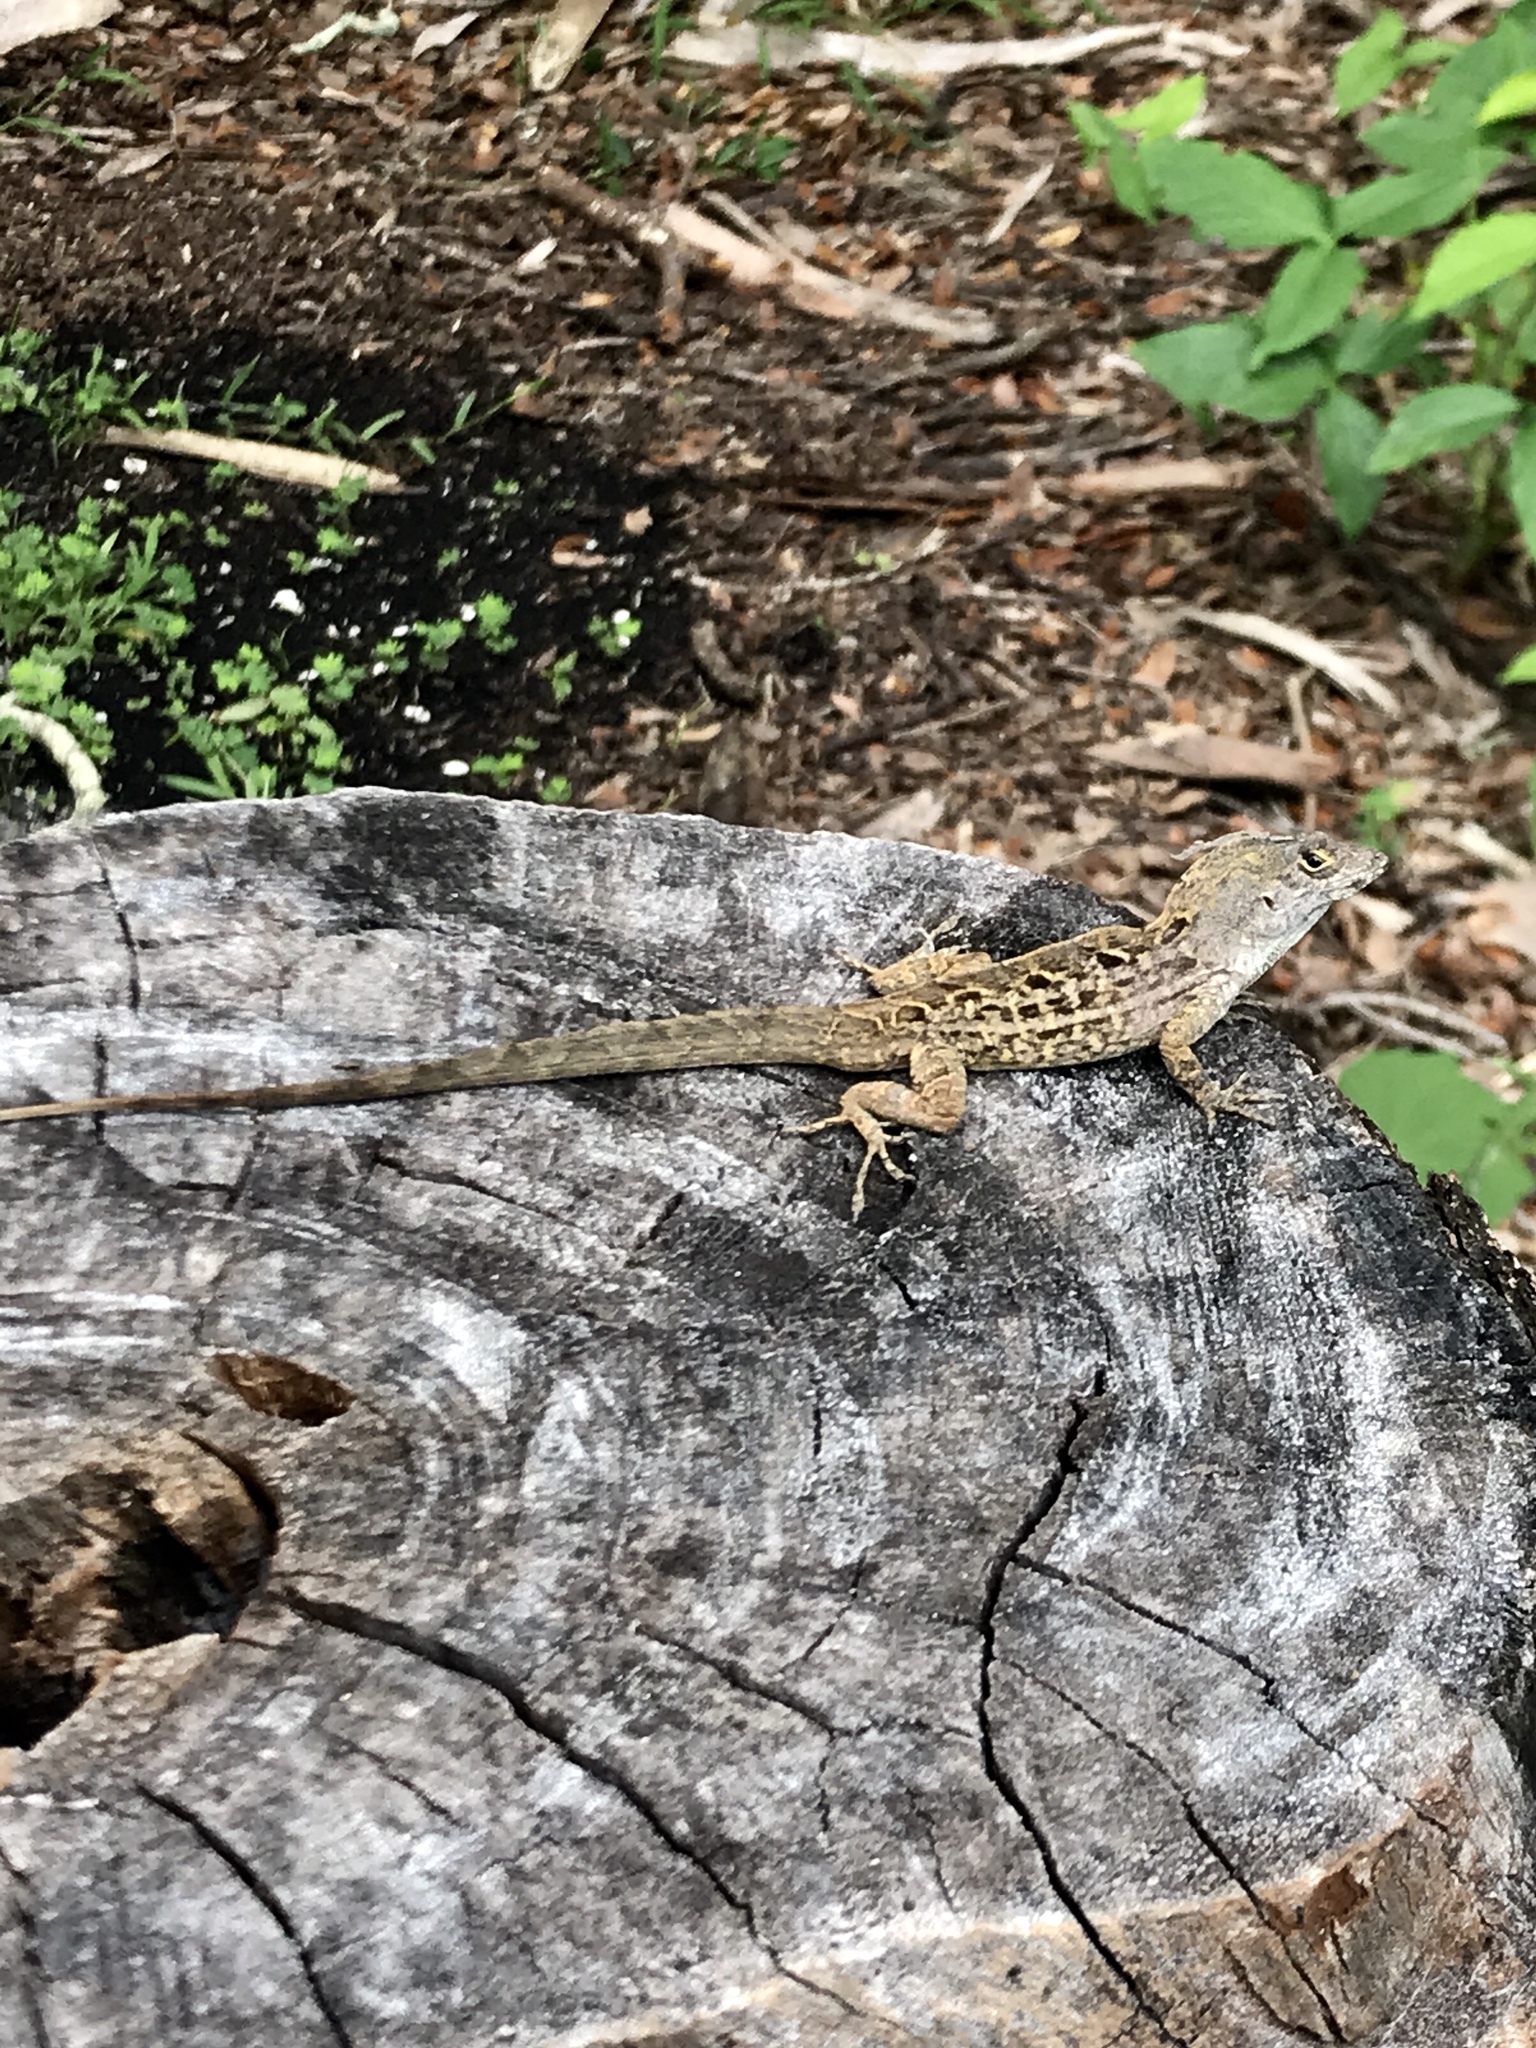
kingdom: Animalia
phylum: Chordata
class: Squamata
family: Dactyloidae
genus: Anolis
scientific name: Anolis sagrei
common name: Brown anole
